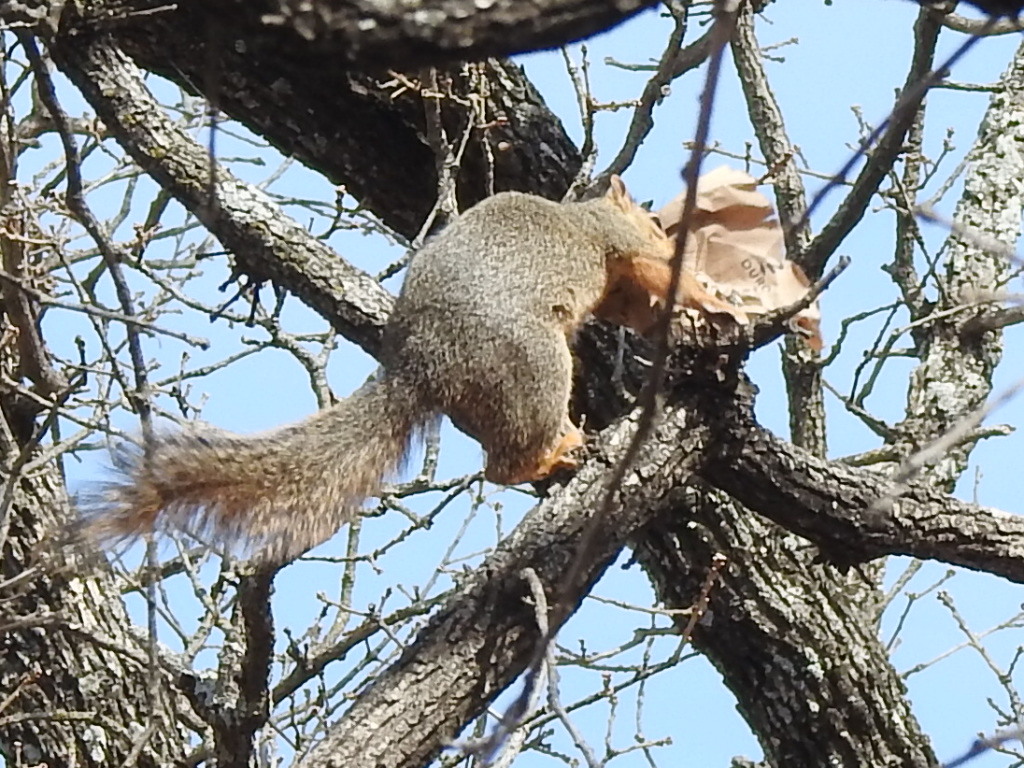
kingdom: Animalia
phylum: Chordata
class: Mammalia
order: Rodentia
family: Sciuridae
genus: Sciurus
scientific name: Sciurus niger
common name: Fox squirrel
